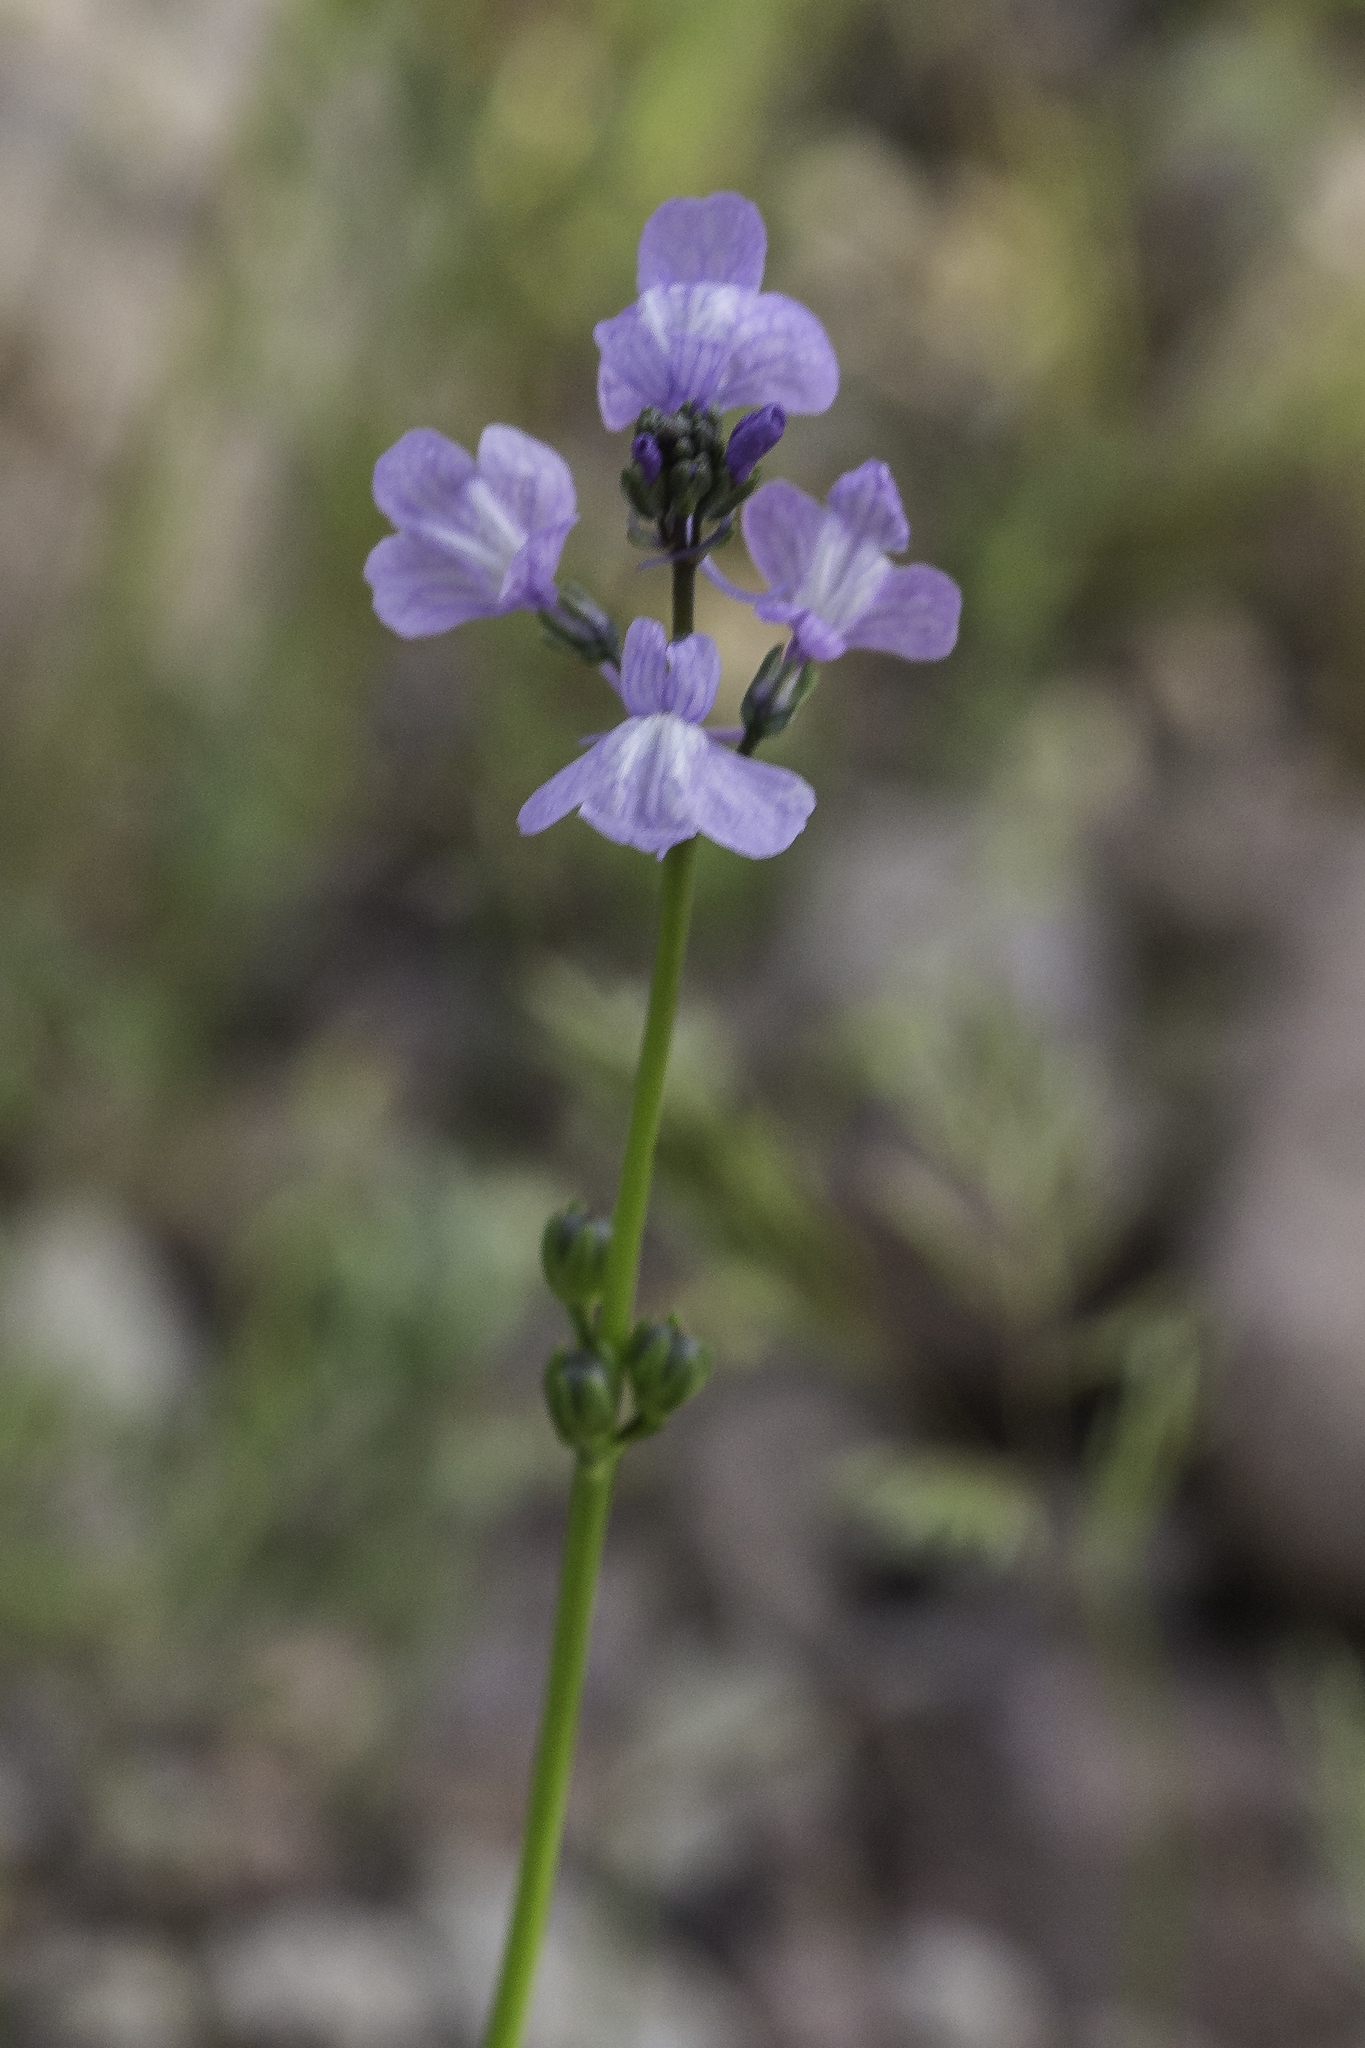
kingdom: Plantae
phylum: Tracheophyta
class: Magnoliopsida
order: Lamiales
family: Plantaginaceae
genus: Nuttallanthus
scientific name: Nuttallanthus texanus
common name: Texas toadflax
